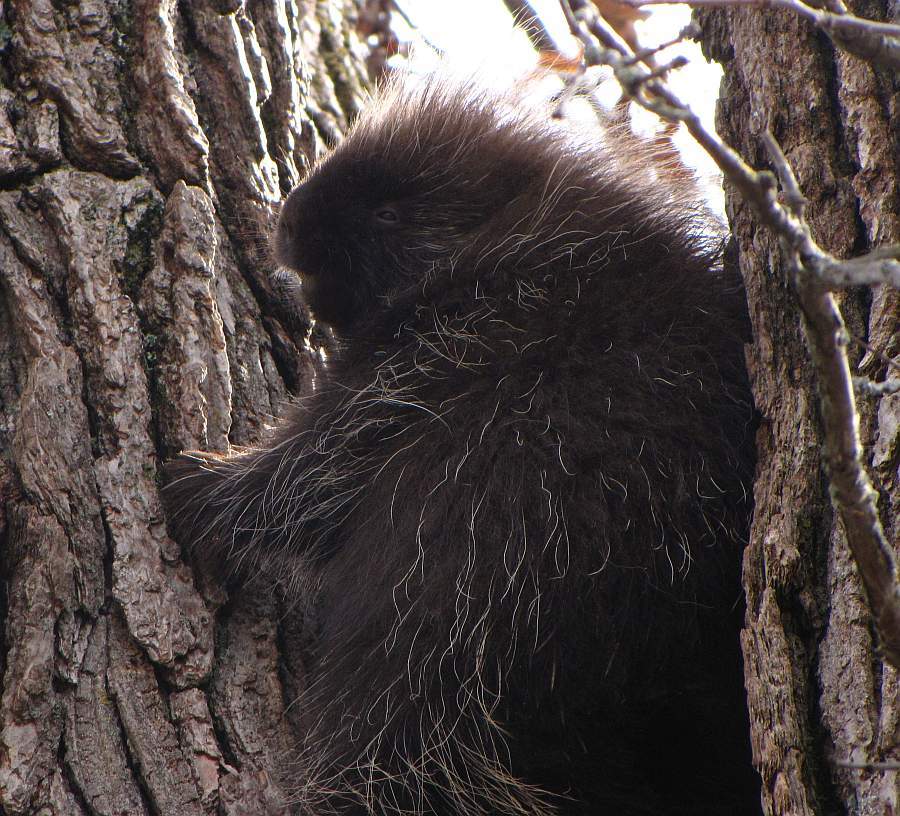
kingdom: Animalia
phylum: Chordata
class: Mammalia
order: Rodentia
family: Erethizontidae
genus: Erethizon
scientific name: Erethizon dorsatus
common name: North american porcupine
